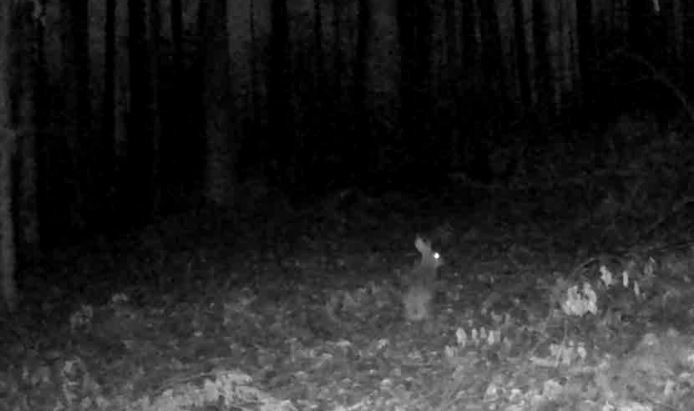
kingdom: Animalia
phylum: Chordata
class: Mammalia
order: Lagomorpha
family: Leporidae
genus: Lepus
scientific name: Lepus europaeus
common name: European hare
